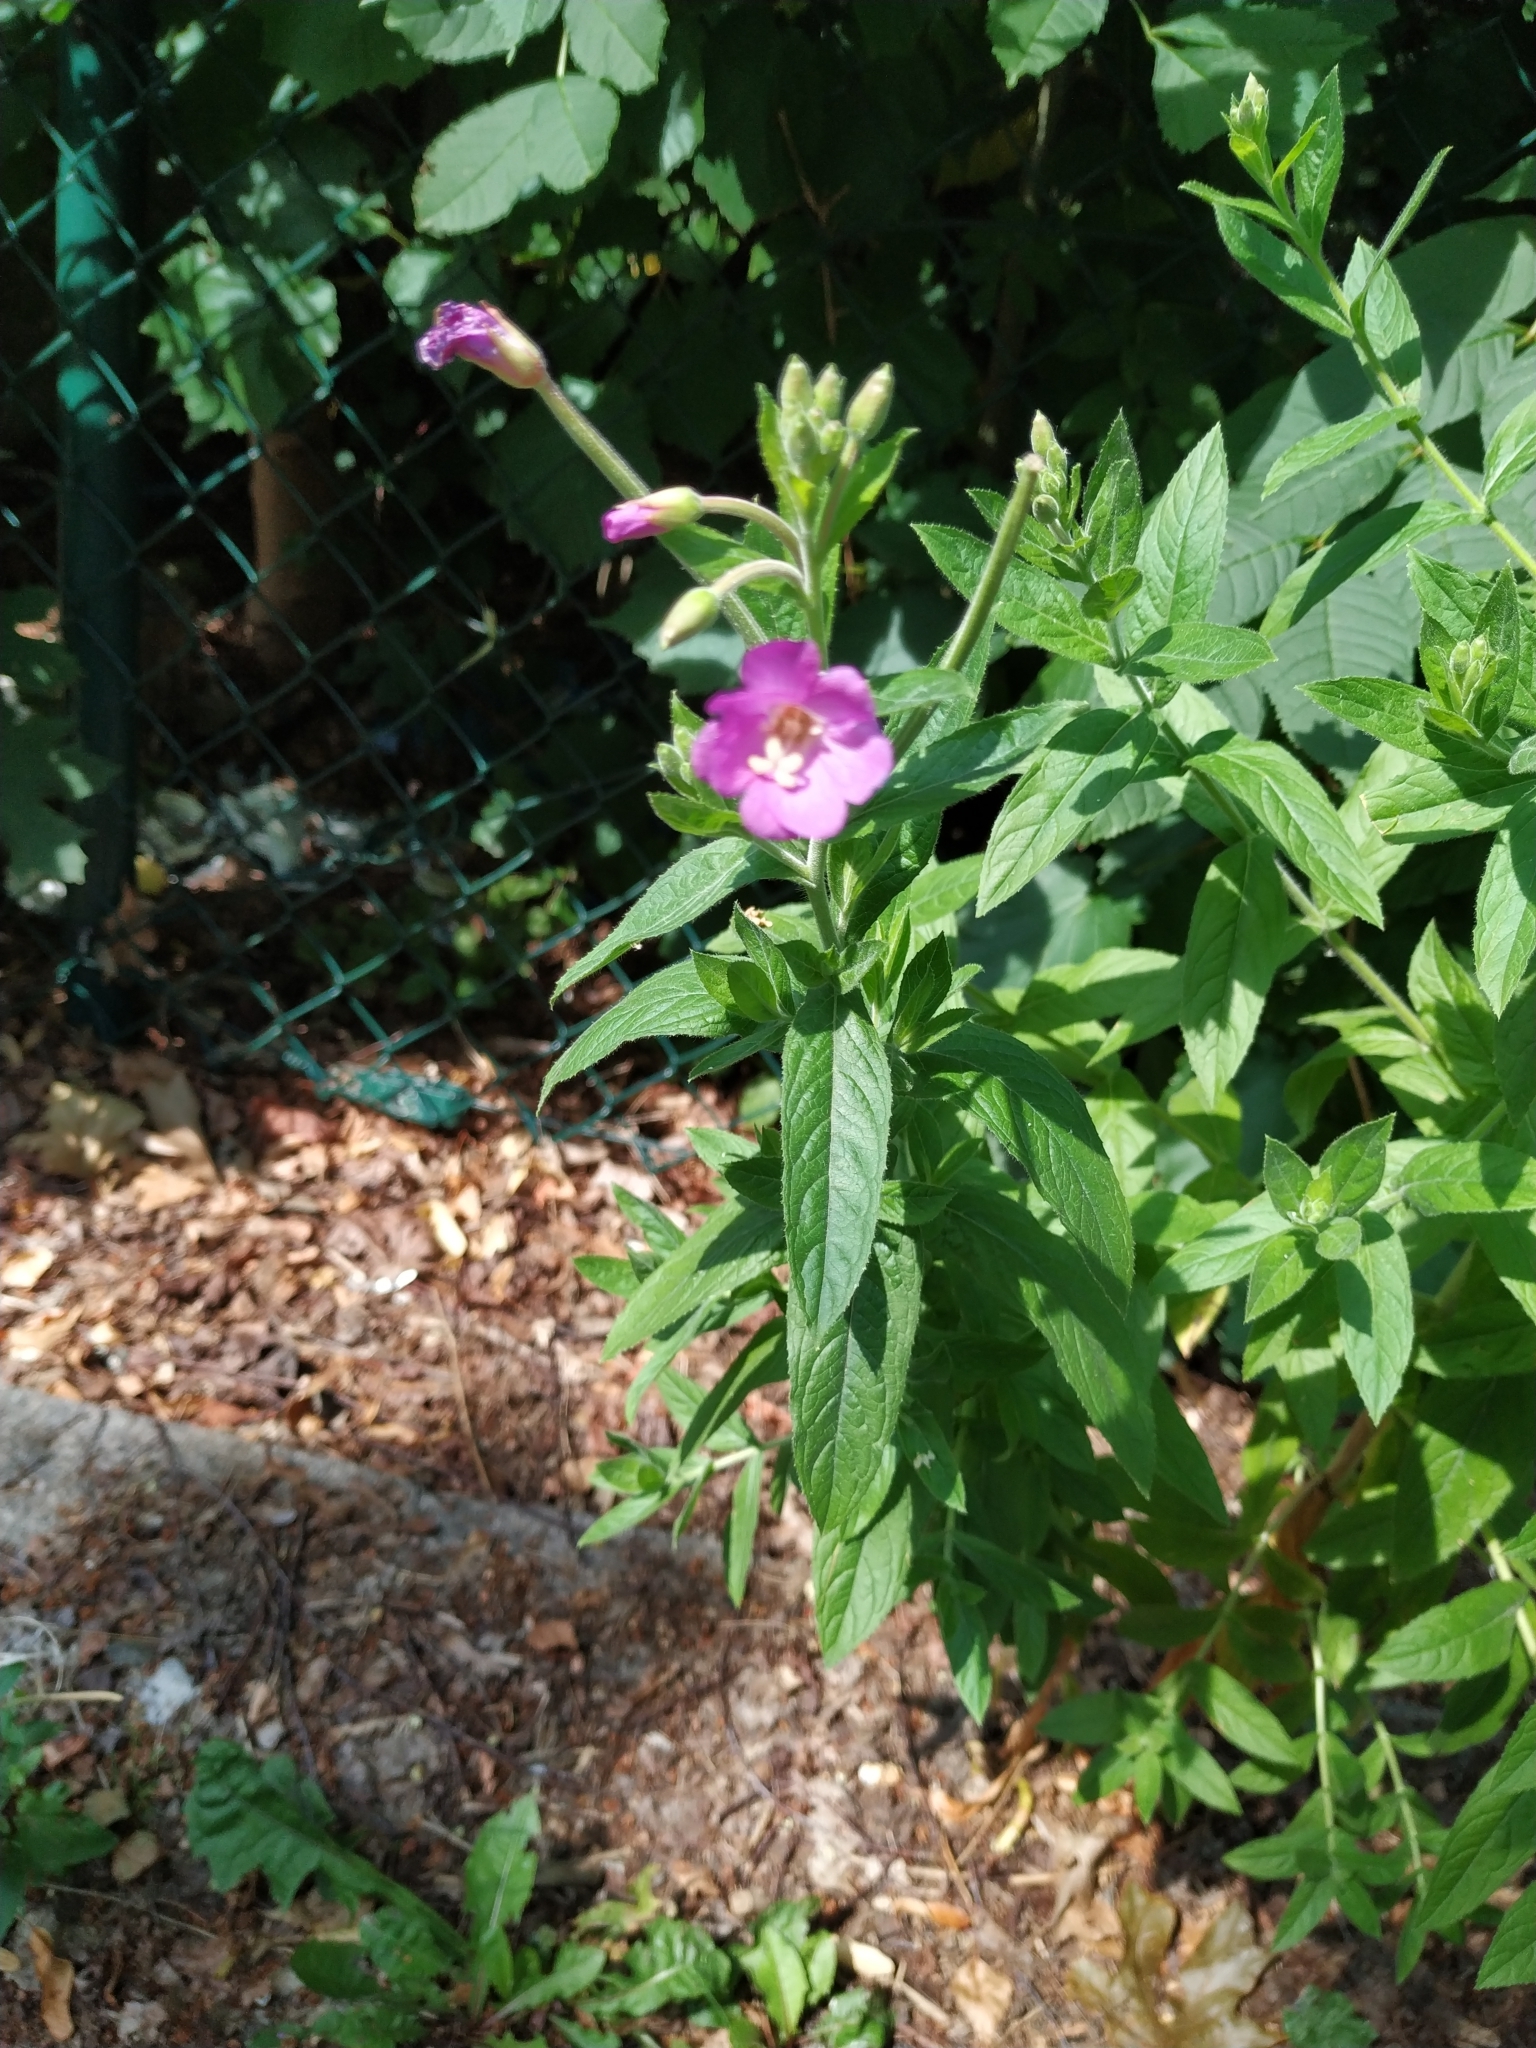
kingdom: Plantae
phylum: Tracheophyta
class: Magnoliopsida
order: Myrtales
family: Onagraceae
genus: Epilobium
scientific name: Epilobium hirsutum
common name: Great willowherb
